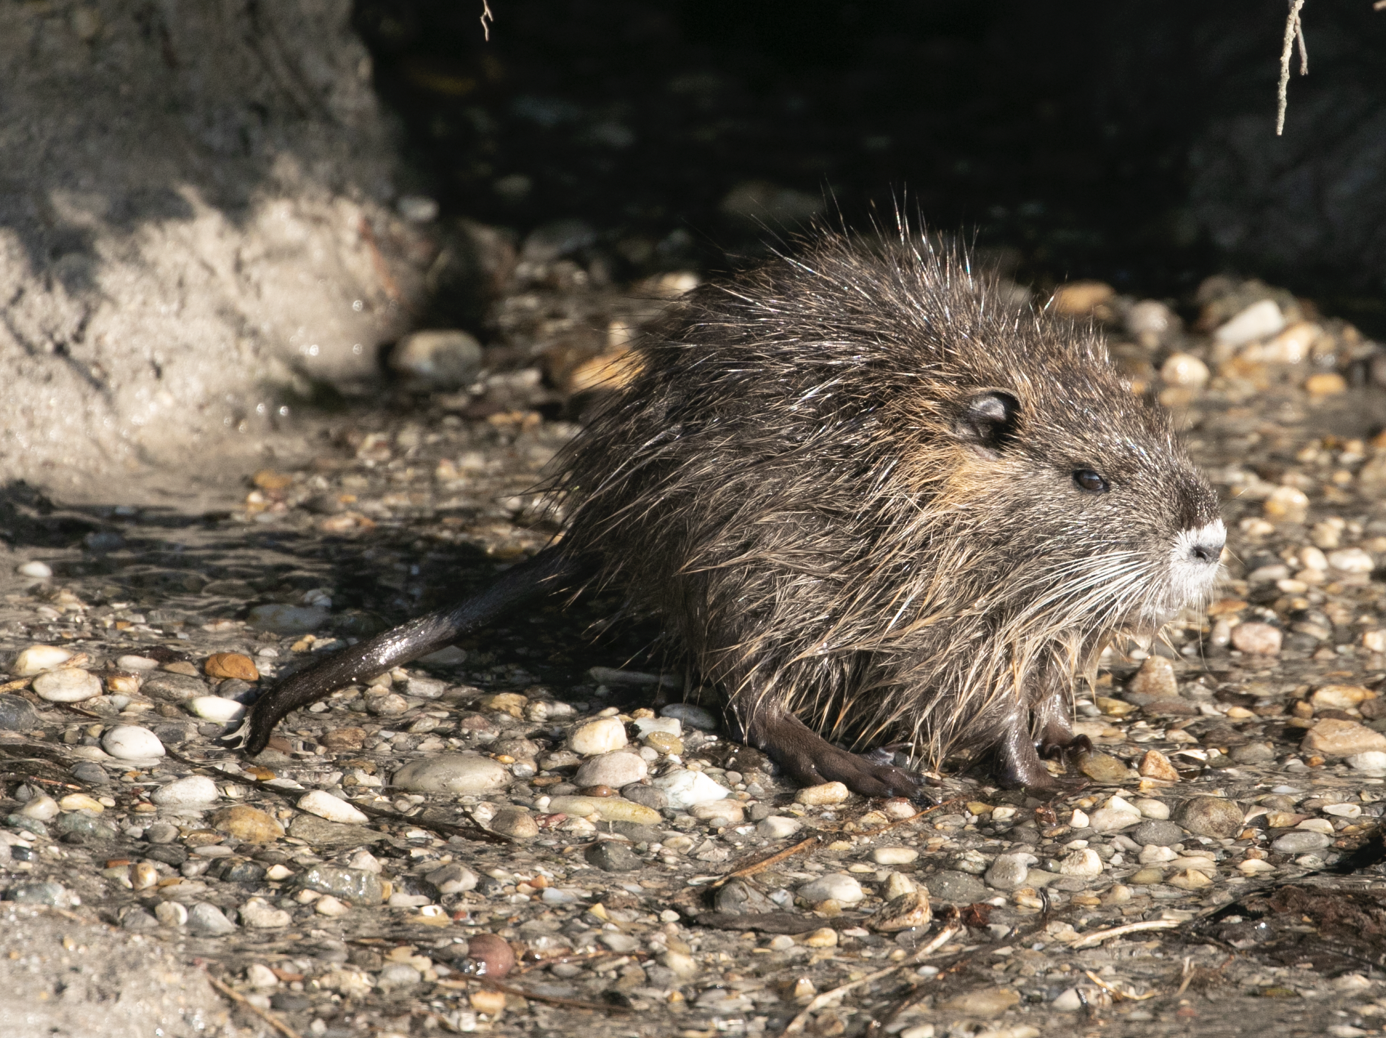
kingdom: Animalia
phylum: Chordata
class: Mammalia
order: Rodentia
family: Myocastoridae
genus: Myocastor
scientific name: Myocastor coypus
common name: Coypu
